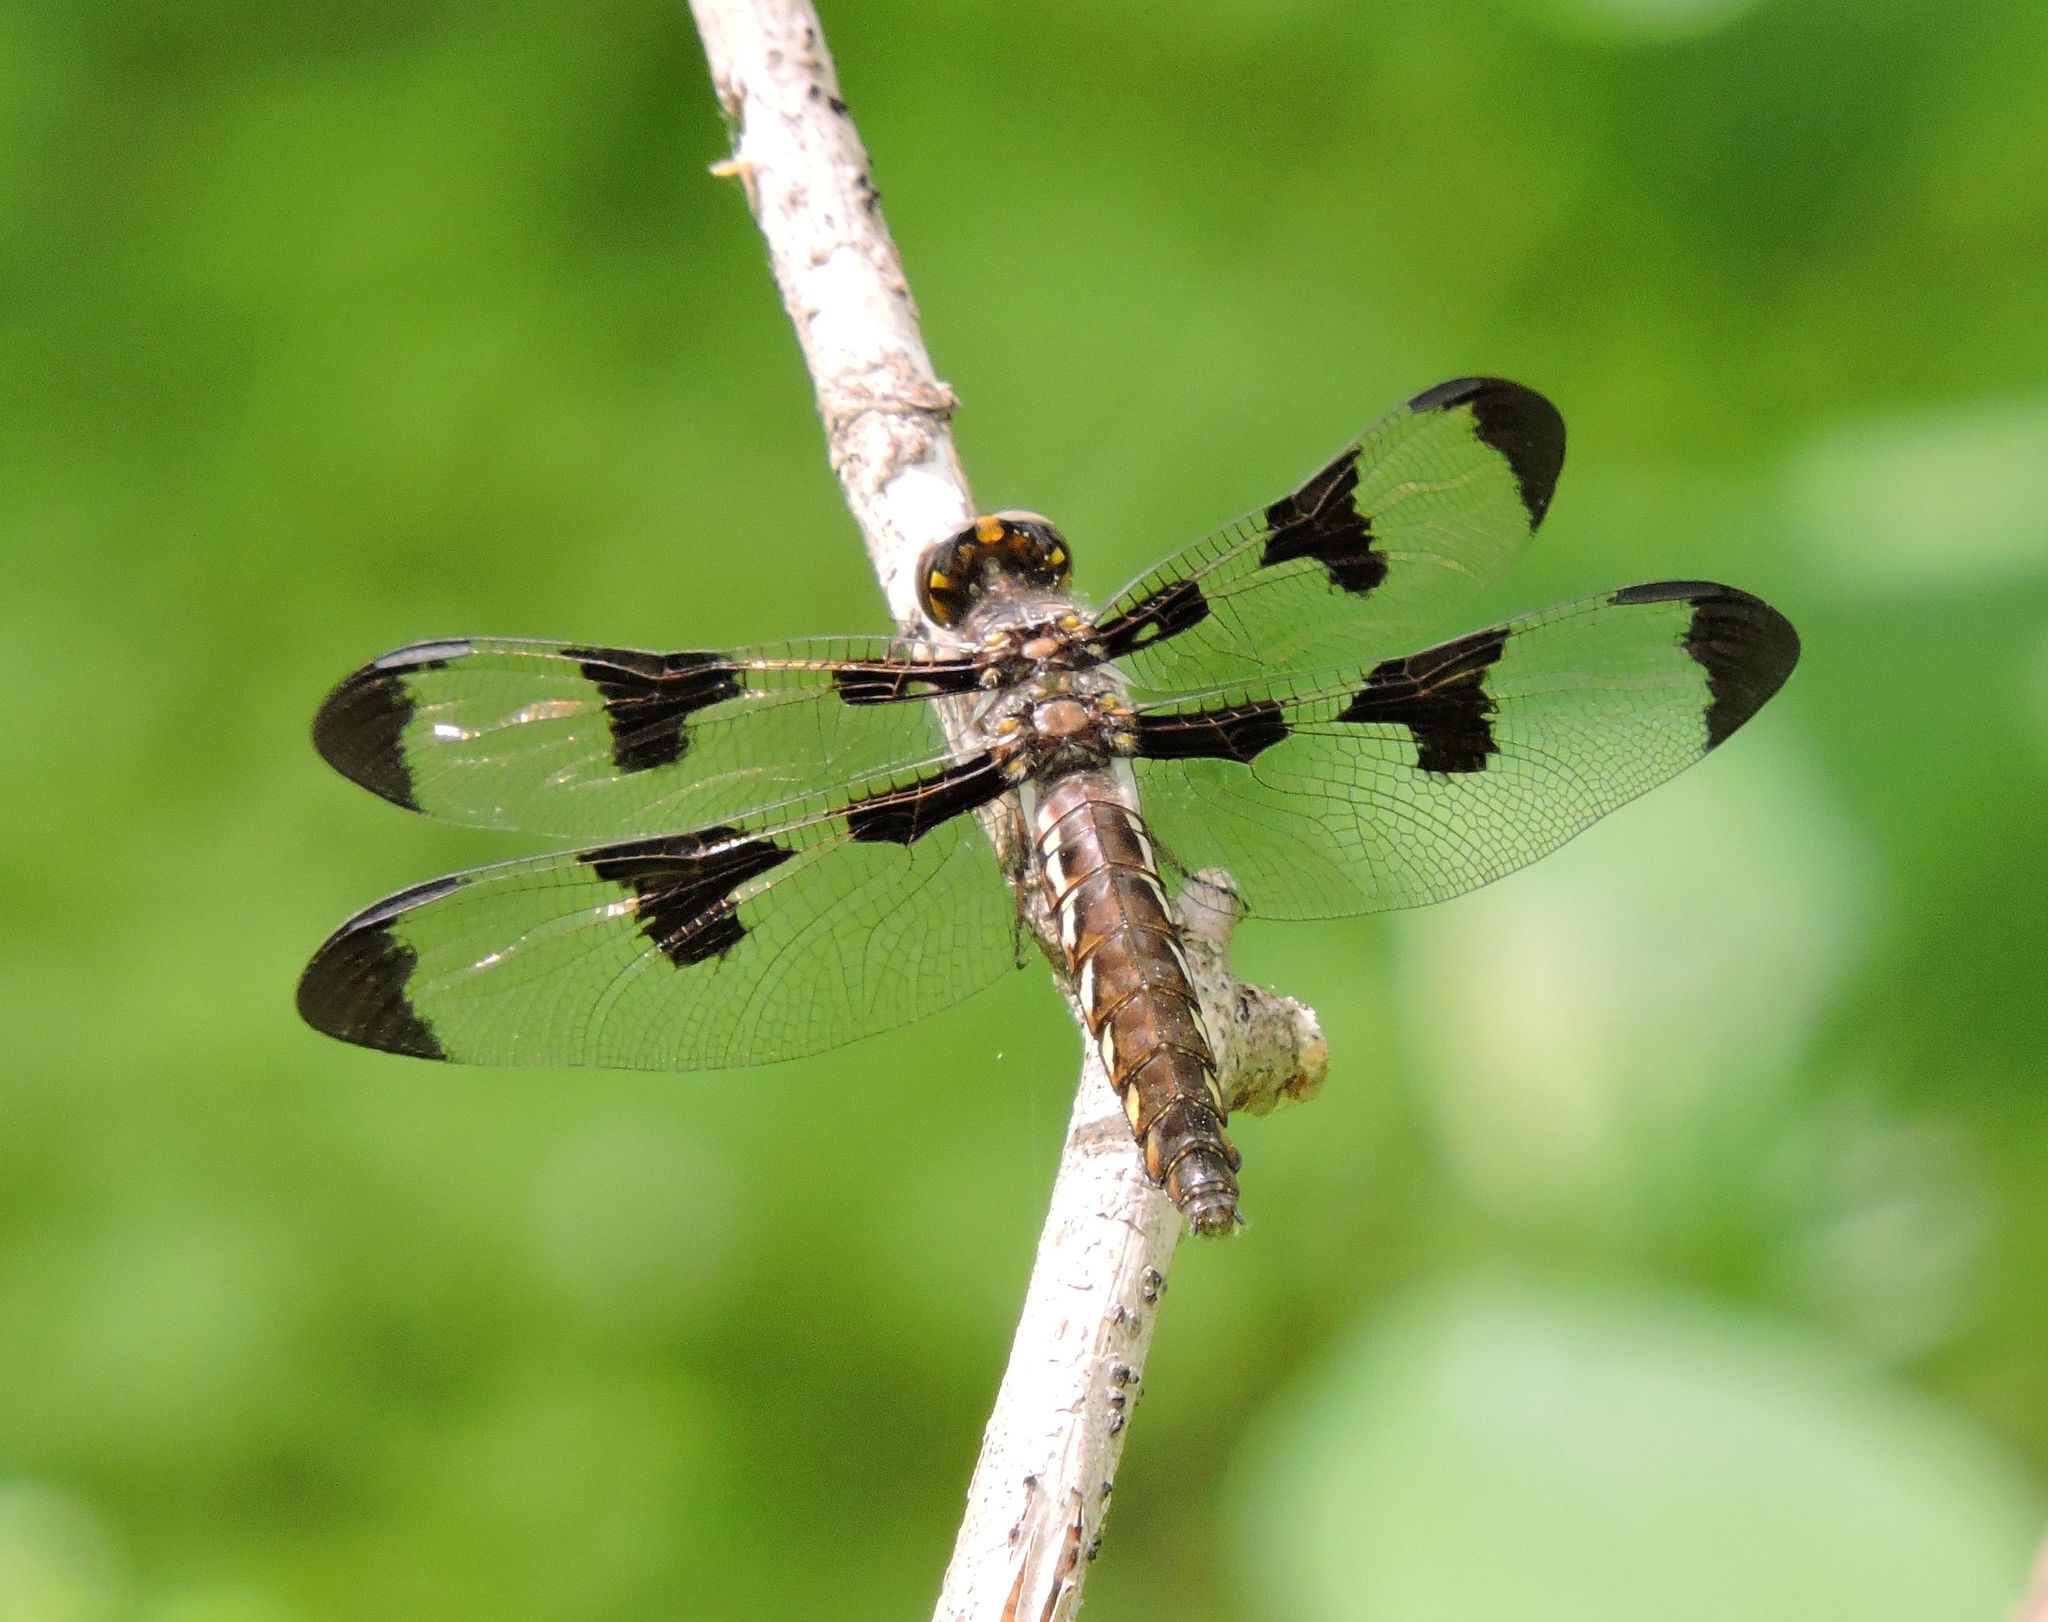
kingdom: Animalia
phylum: Arthropoda
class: Insecta
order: Odonata
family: Libellulidae
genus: Plathemis
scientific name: Plathemis lydia
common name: Common whitetail
